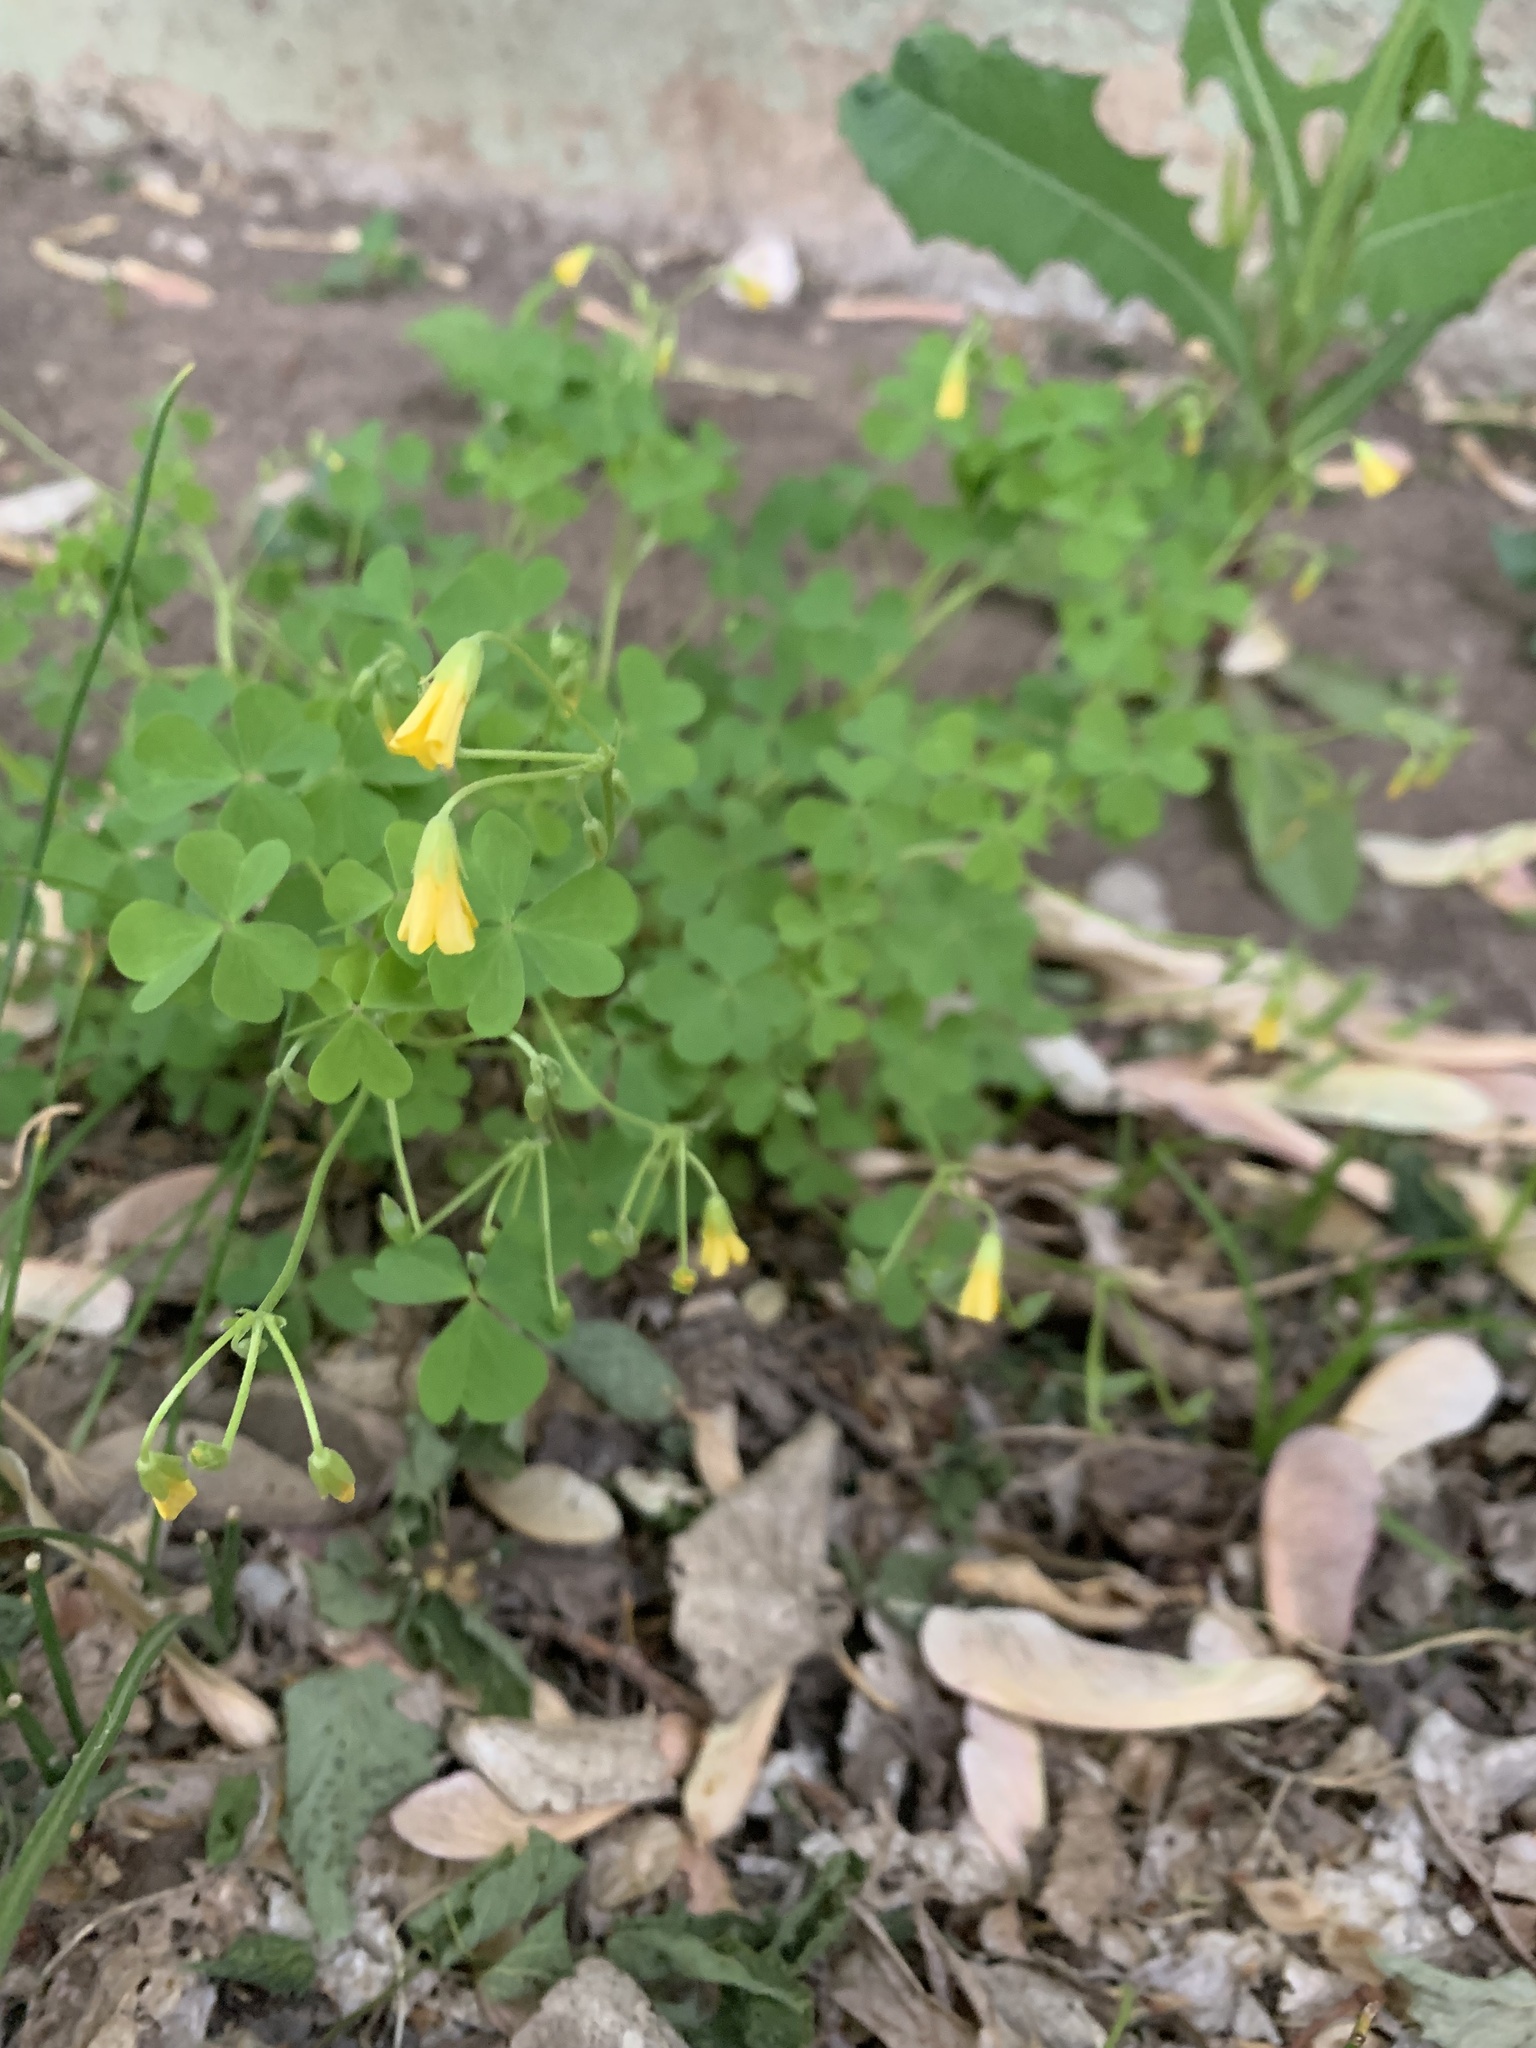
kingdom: Plantae
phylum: Tracheophyta
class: Magnoliopsida
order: Oxalidales
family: Oxalidaceae
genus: Oxalis
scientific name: Oxalis dillenii
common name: Sussex yellow-sorrel
